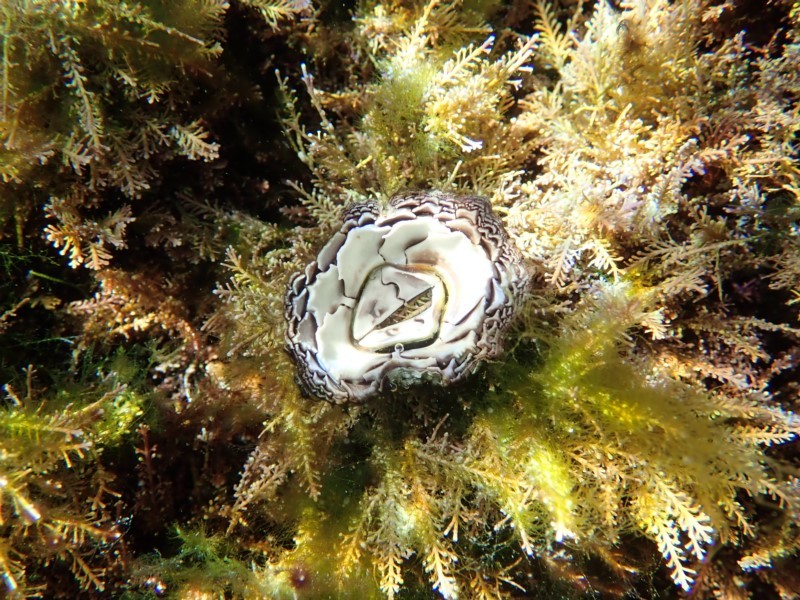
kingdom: Animalia
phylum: Arthropoda
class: Maxillopoda
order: Sessilia
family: Catophragmidae
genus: Catomerus
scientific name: Catomerus polymerus
